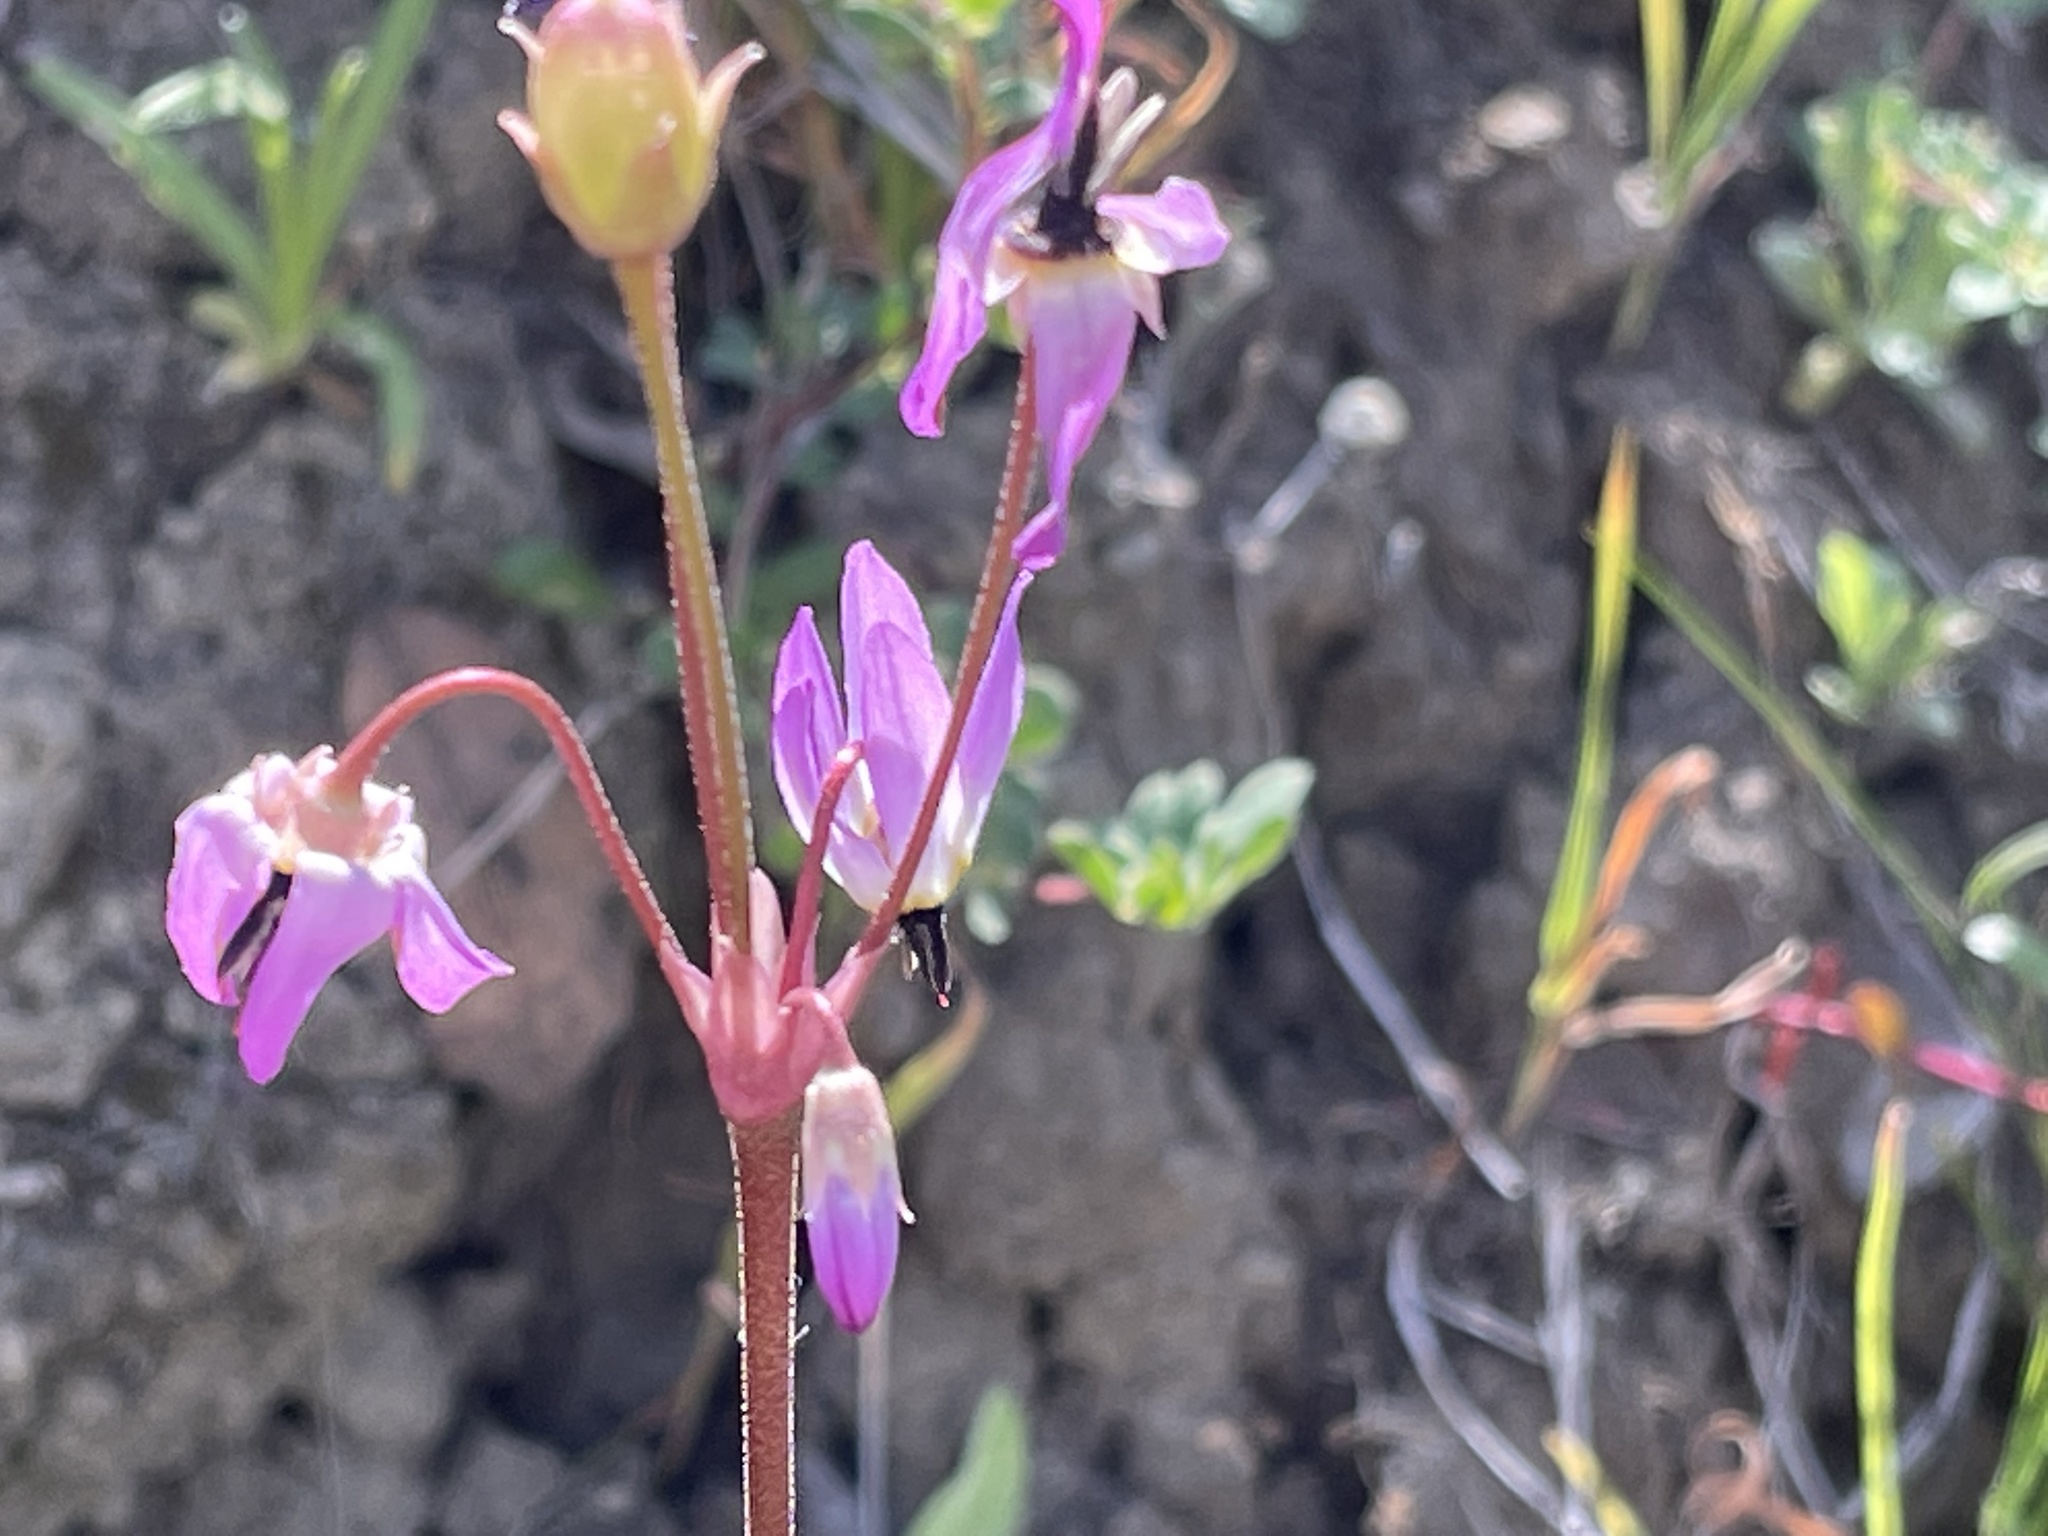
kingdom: Plantae
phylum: Tracheophyta
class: Magnoliopsida
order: Ericales
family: Primulaceae
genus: Dodecatheon
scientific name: Dodecatheon hendersonii
